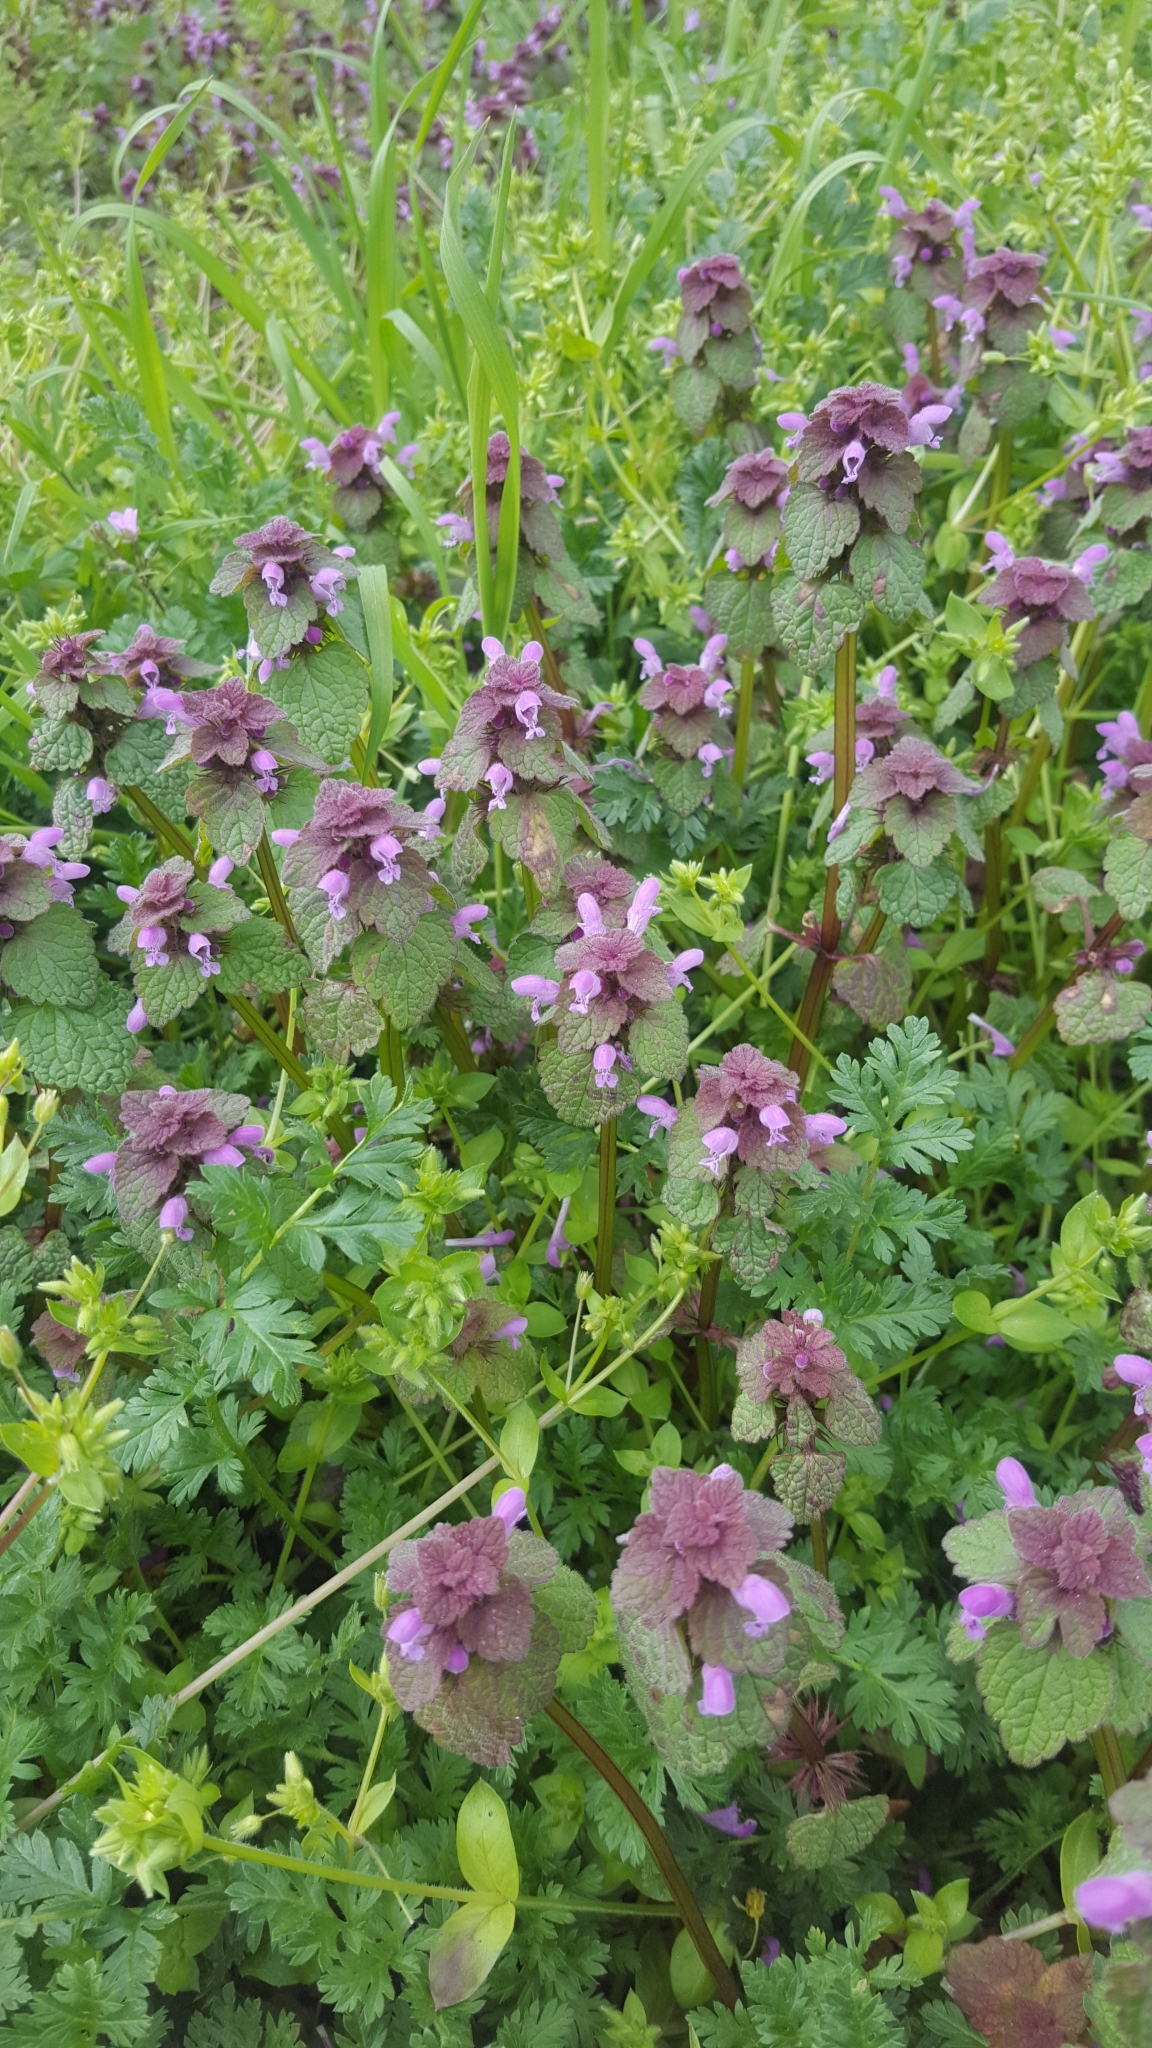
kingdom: Plantae
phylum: Tracheophyta
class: Magnoliopsida
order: Lamiales
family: Lamiaceae
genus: Lamium
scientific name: Lamium purpureum
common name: Red dead-nettle
